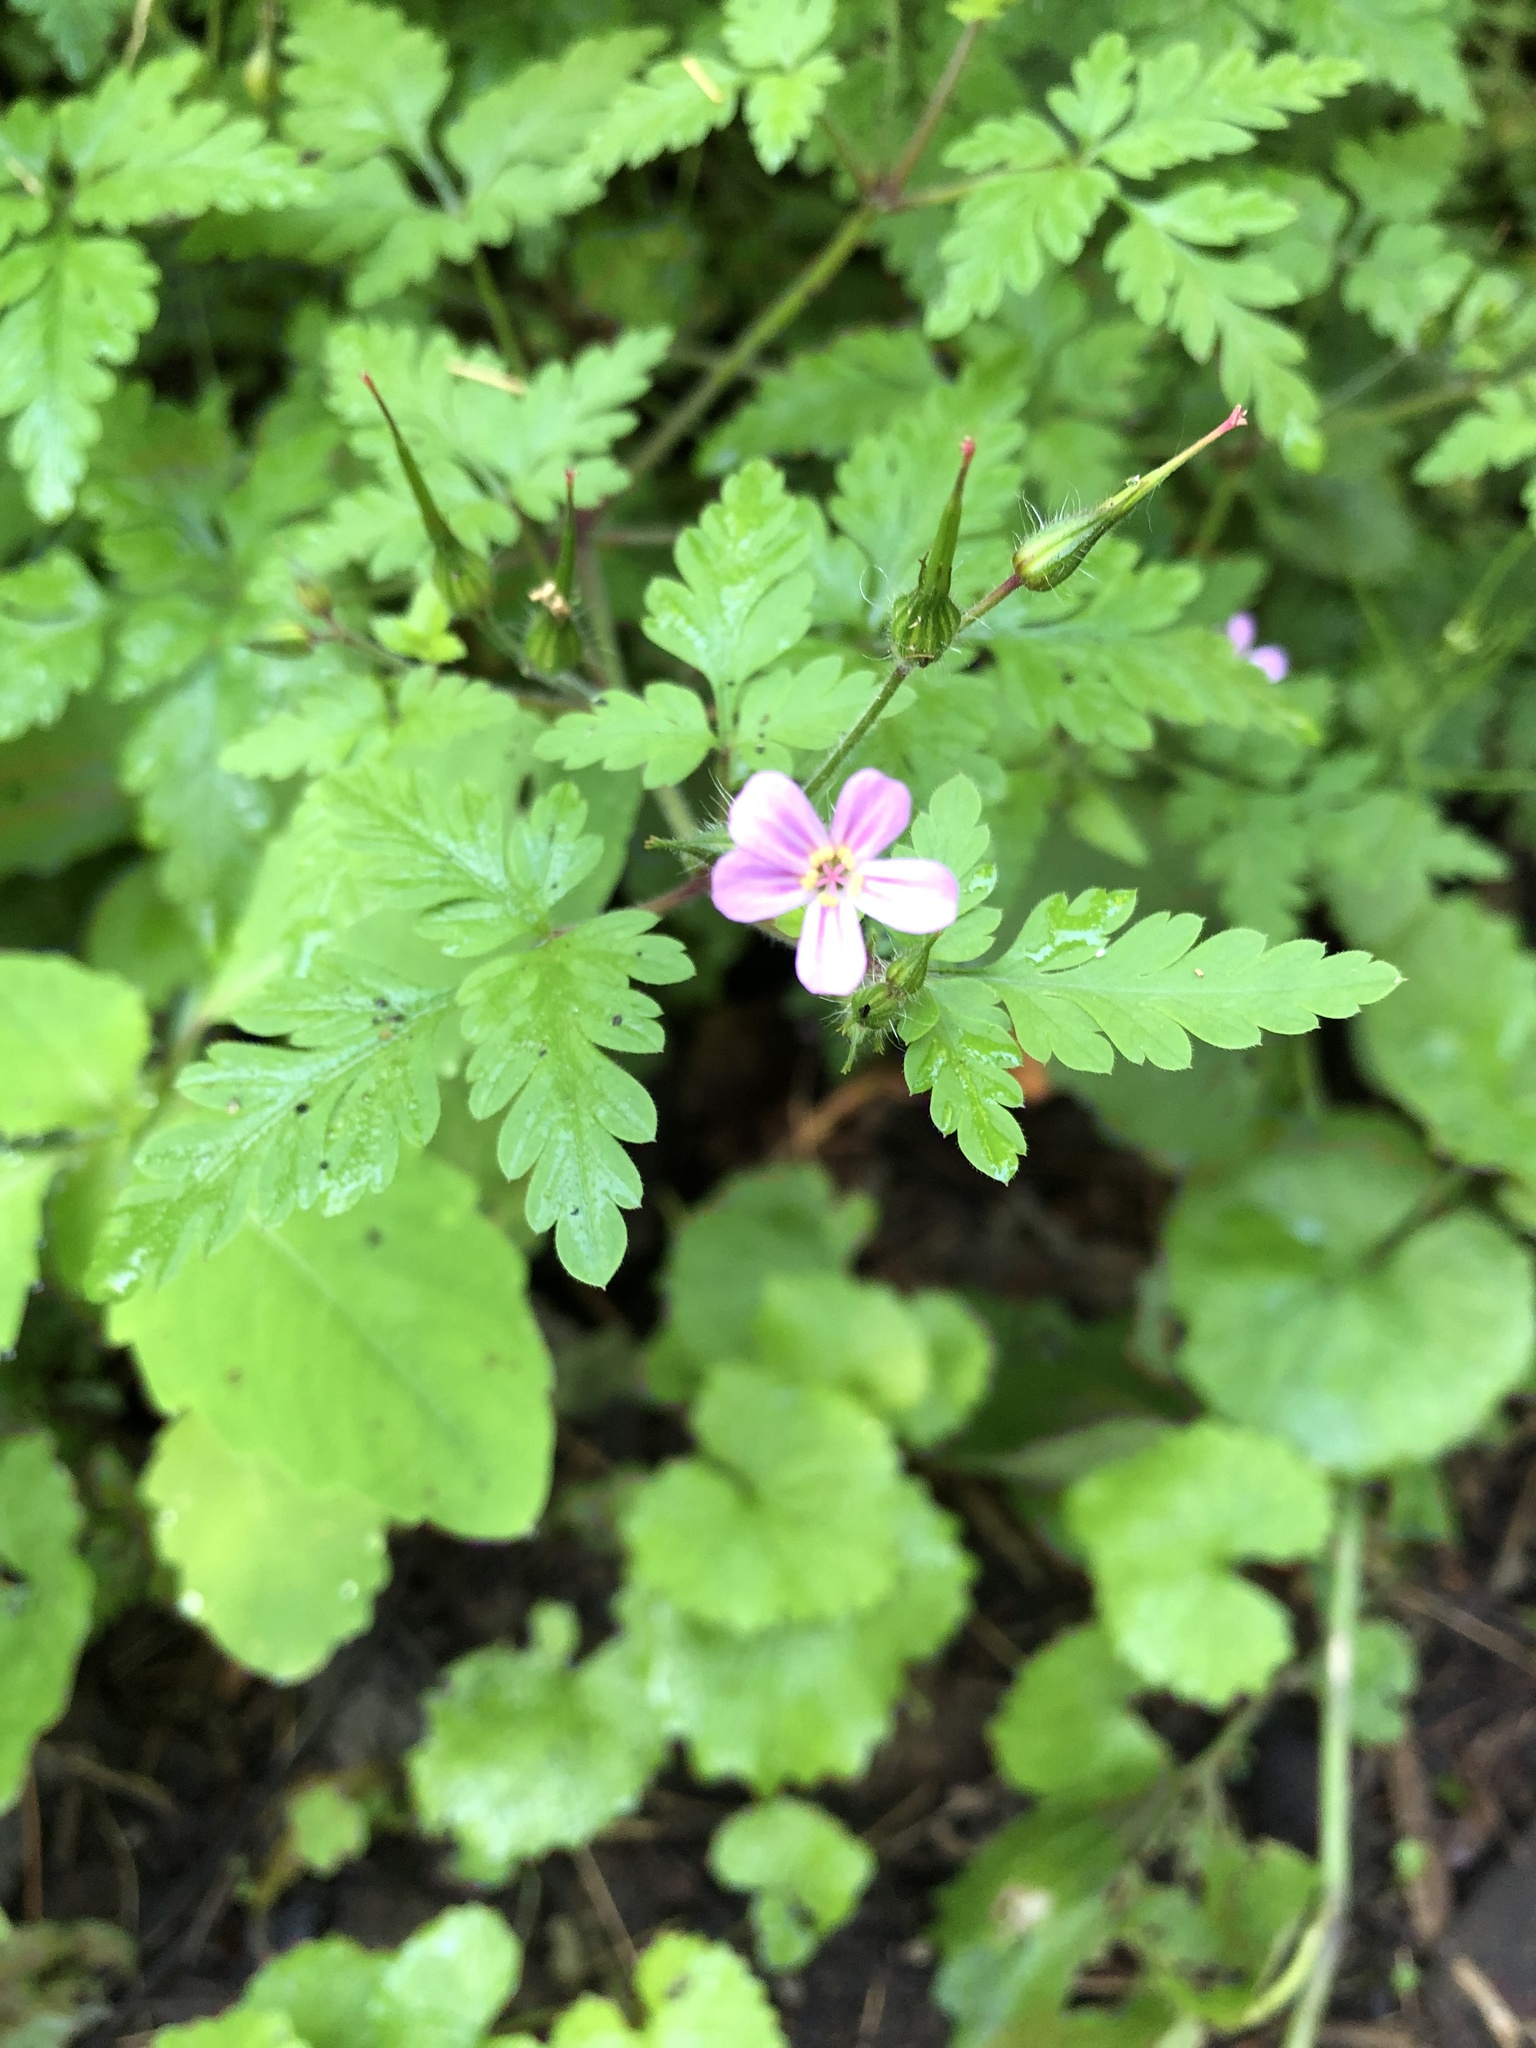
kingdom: Plantae
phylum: Tracheophyta
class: Magnoliopsida
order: Geraniales
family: Geraniaceae
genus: Geranium
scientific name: Geranium robertianum
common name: Herb-robert
